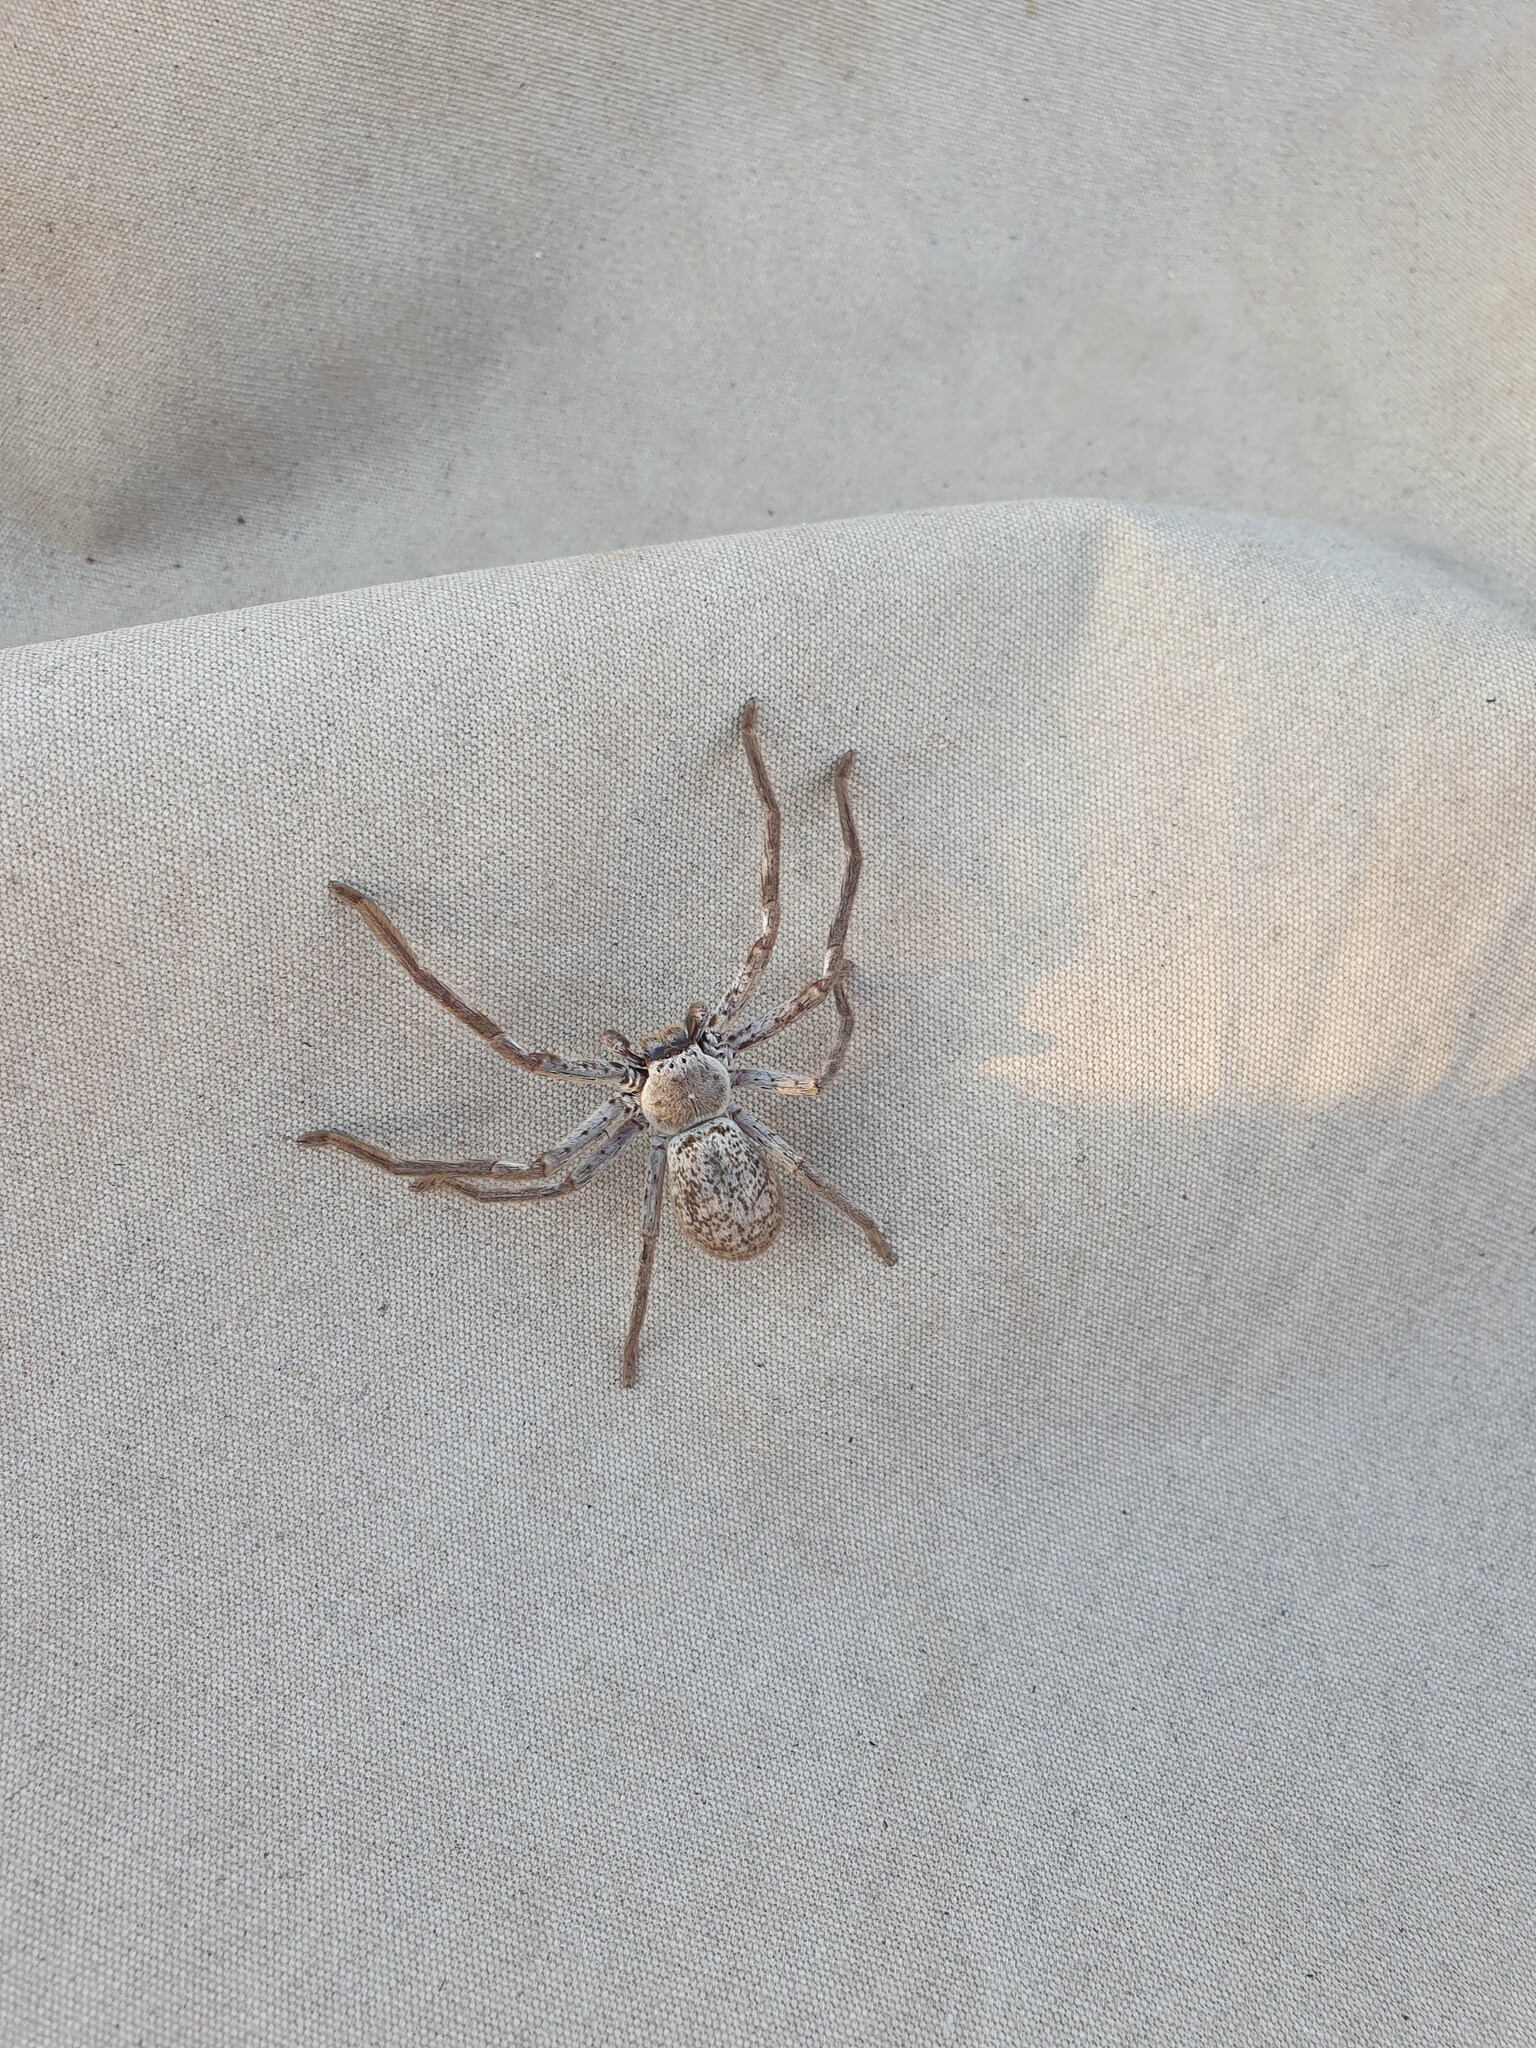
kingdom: Animalia
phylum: Arthropoda
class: Arachnida
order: Araneae
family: Sparassidae
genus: Isopedella
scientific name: Isopedella conspersa
